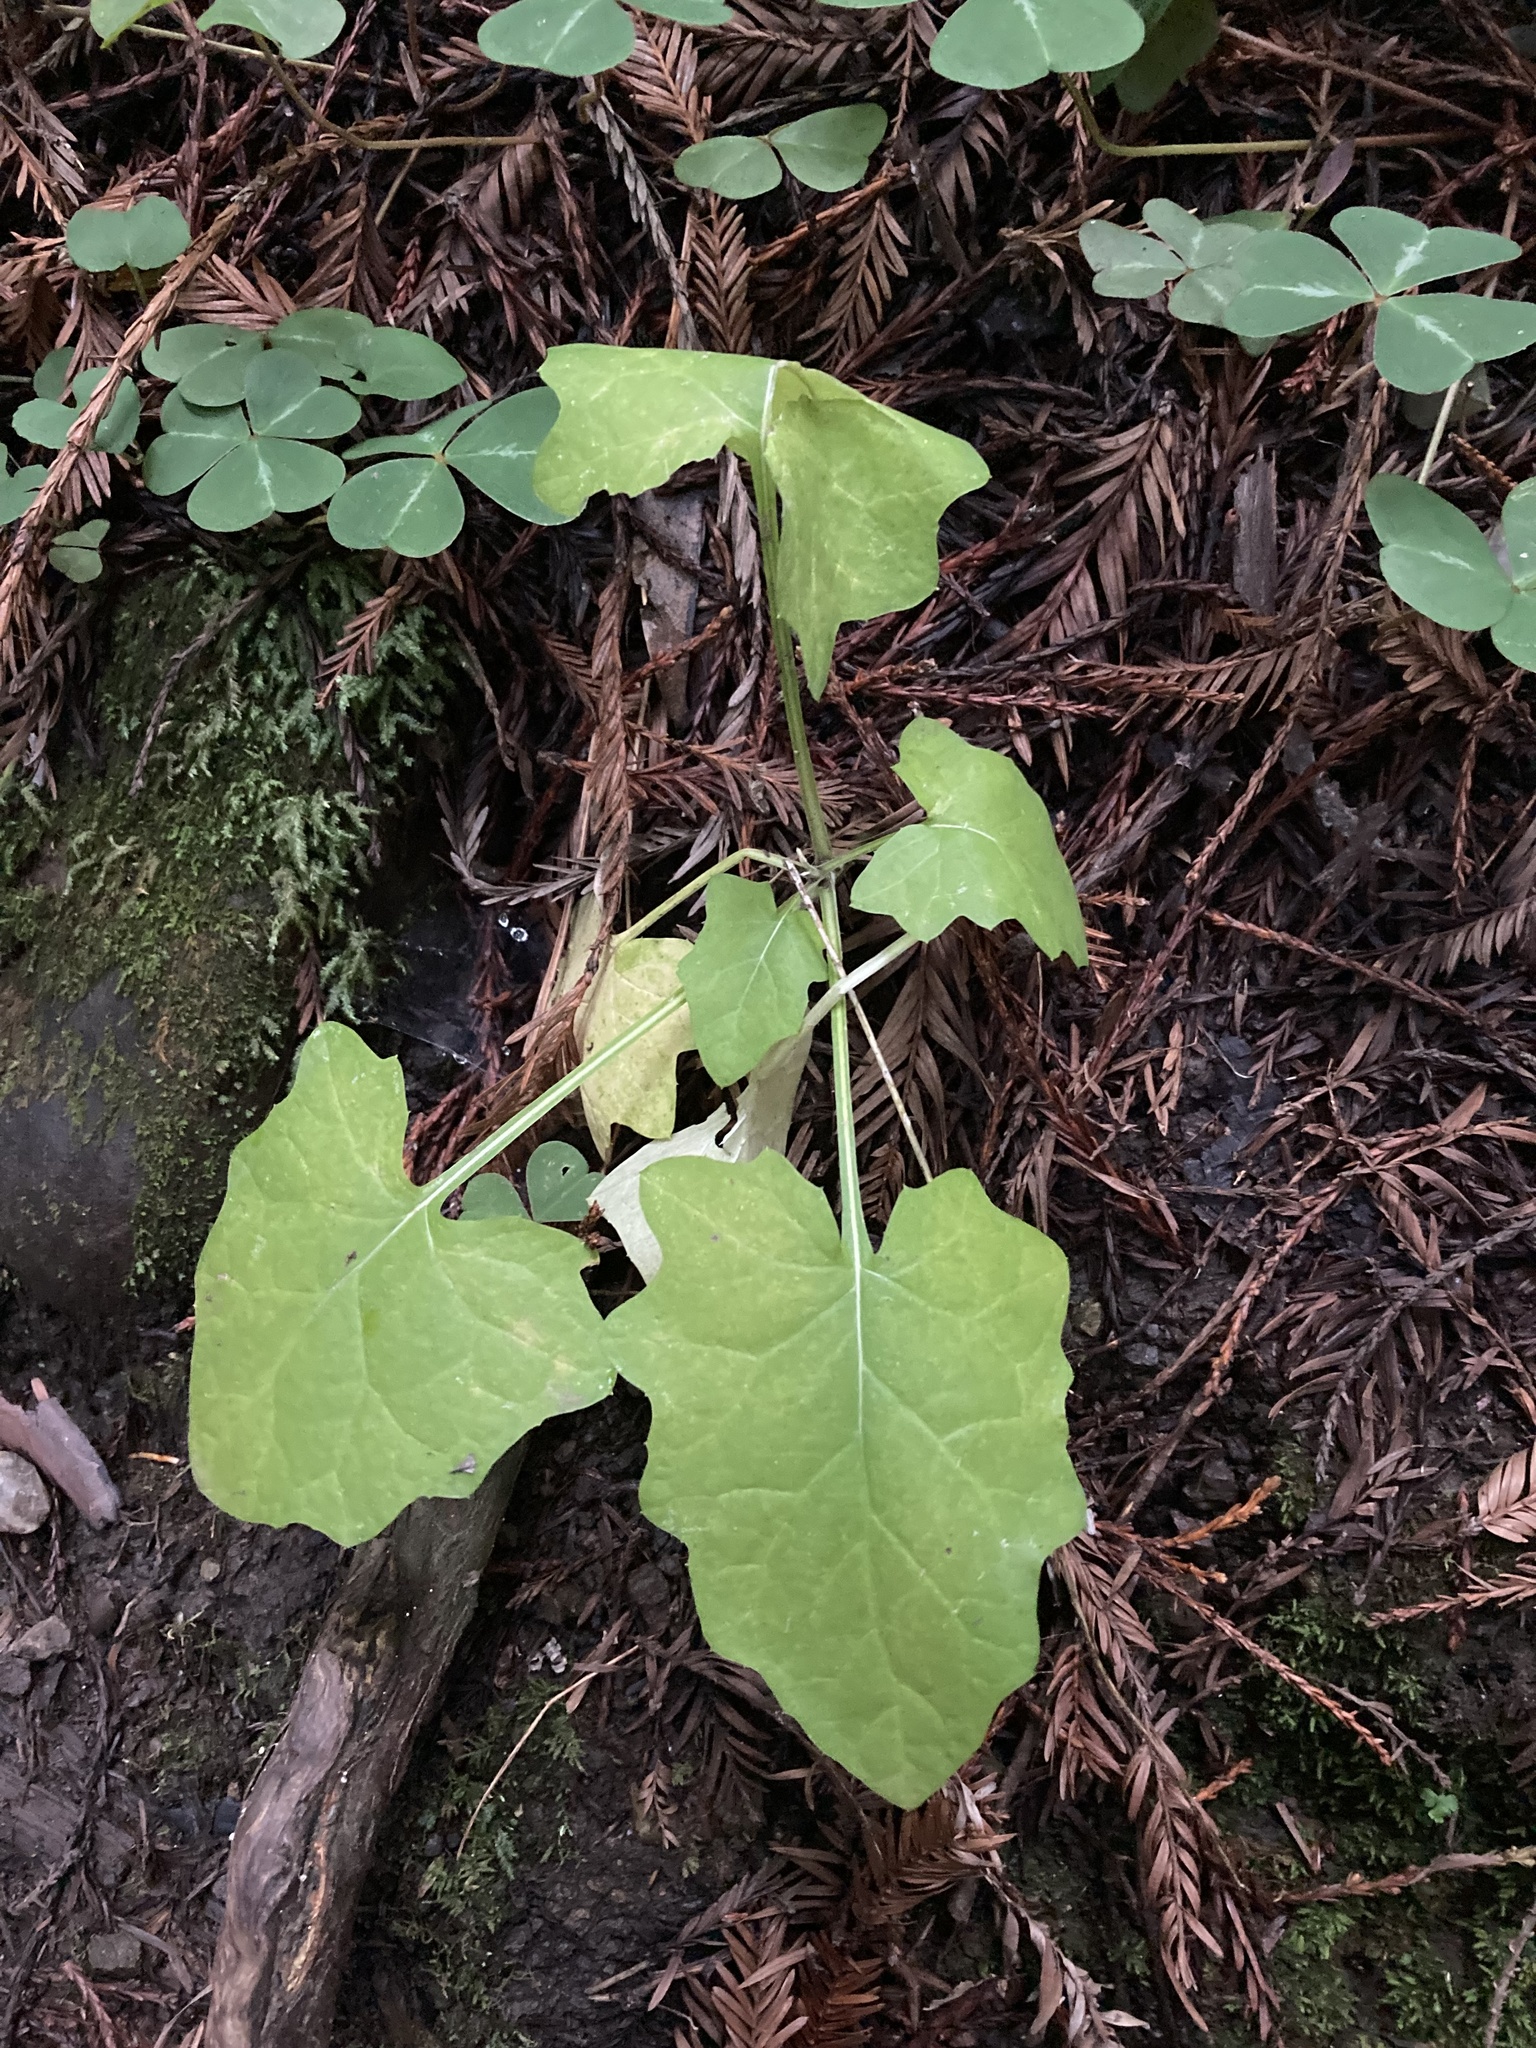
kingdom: Plantae
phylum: Tracheophyta
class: Magnoliopsida
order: Asterales
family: Asteraceae
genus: Adenocaulon
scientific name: Adenocaulon bicolor
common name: Trailplant
